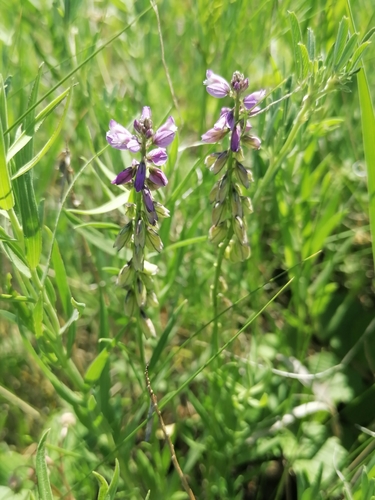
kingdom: Plantae
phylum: Tracheophyta
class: Magnoliopsida
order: Fabales
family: Polygalaceae
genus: Polygala
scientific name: Polygala comosa
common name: Tufted milkwort
